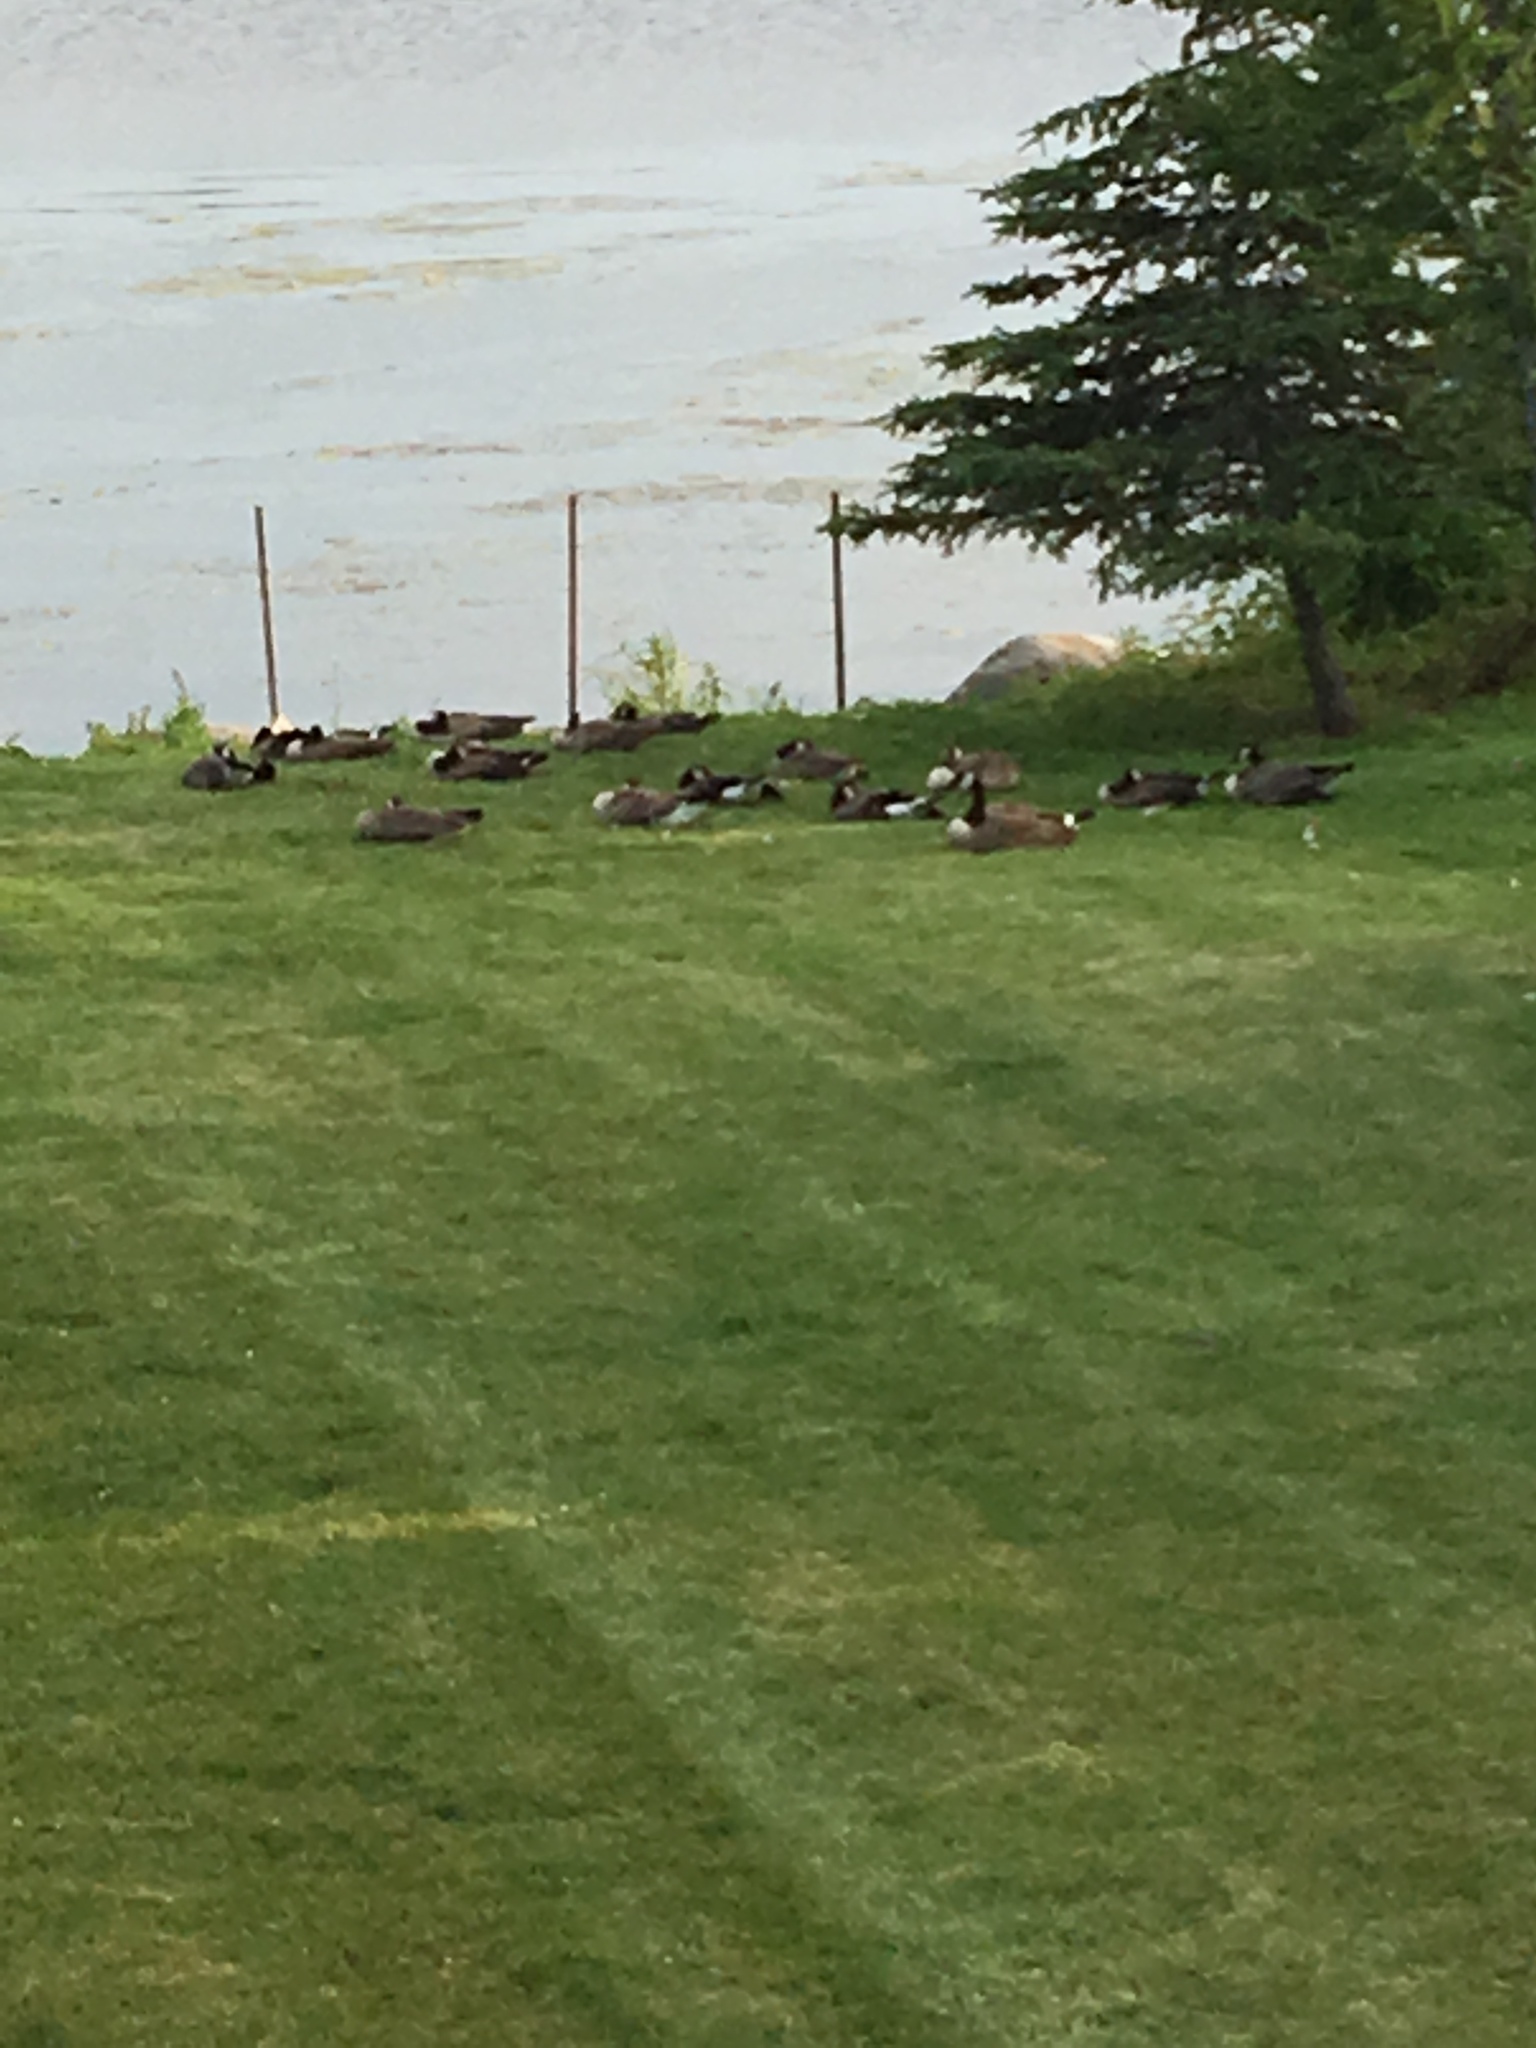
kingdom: Animalia
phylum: Chordata
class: Aves
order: Anseriformes
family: Anatidae
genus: Branta
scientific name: Branta canadensis
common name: Canada goose
